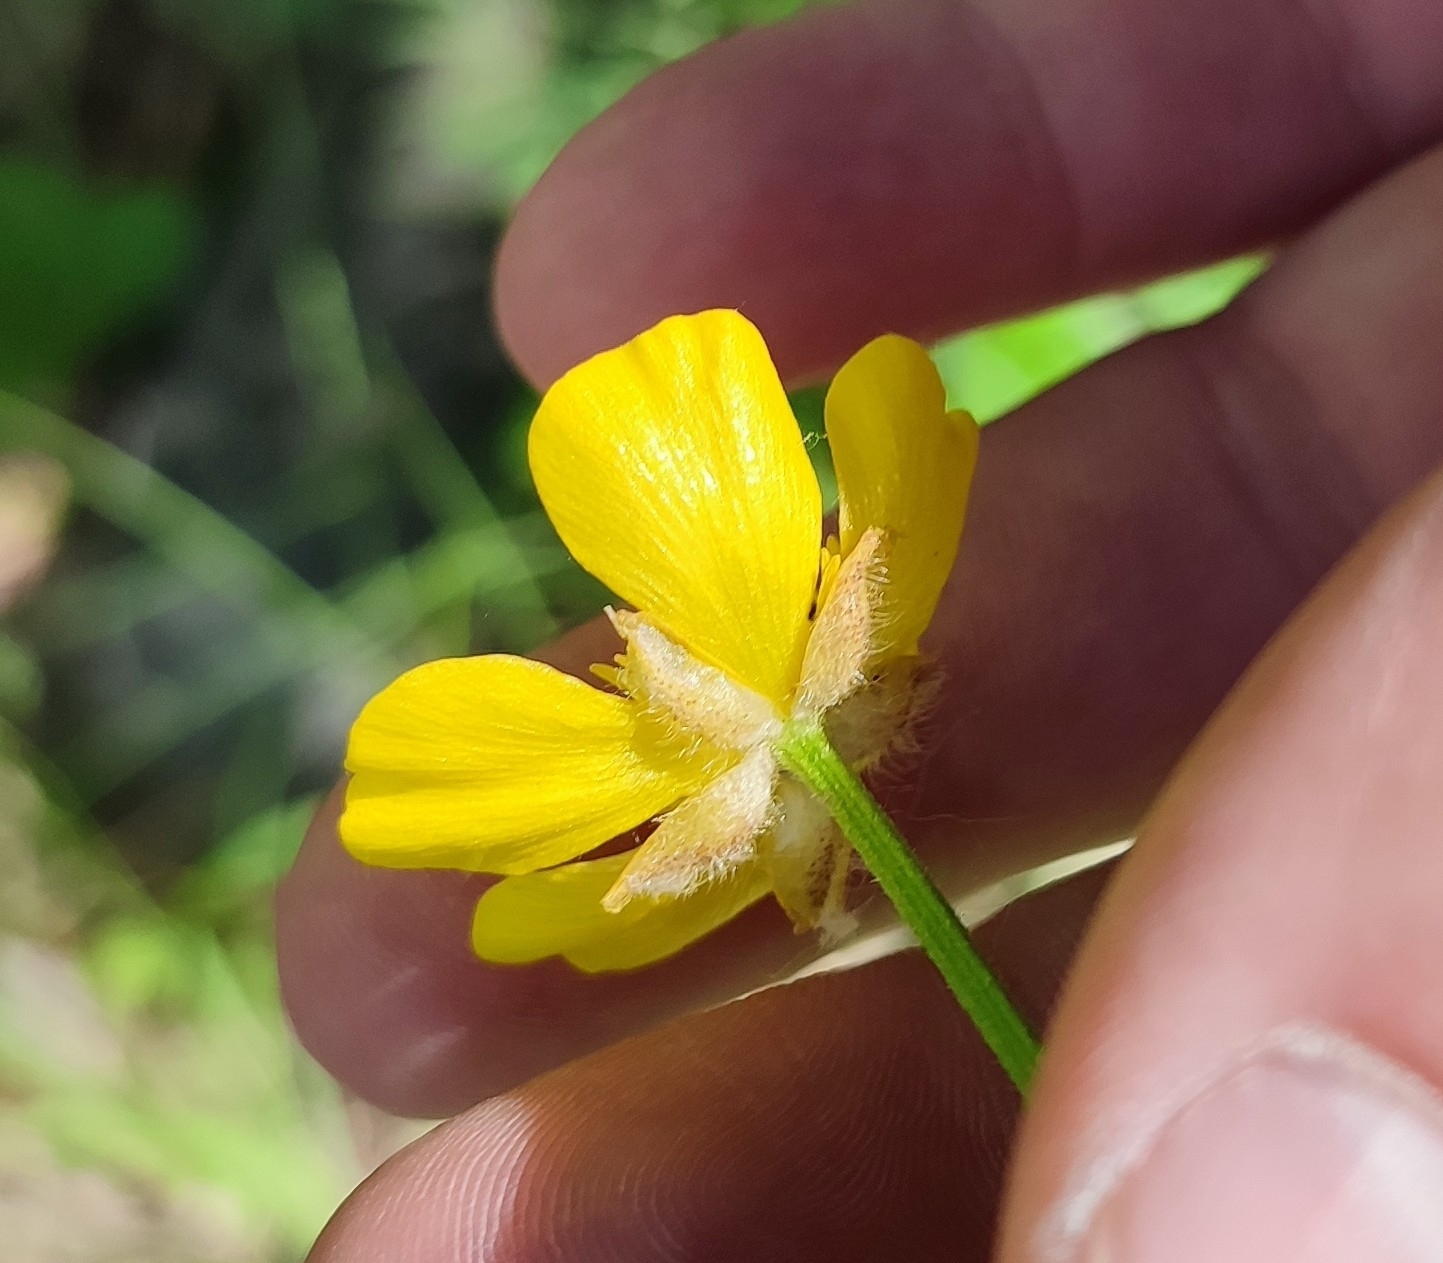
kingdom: Plantae
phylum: Tracheophyta
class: Magnoliopsida
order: Ranunculales
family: Ranunculaceae
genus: Ranunculus
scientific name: Ranunculus polyanthemos
